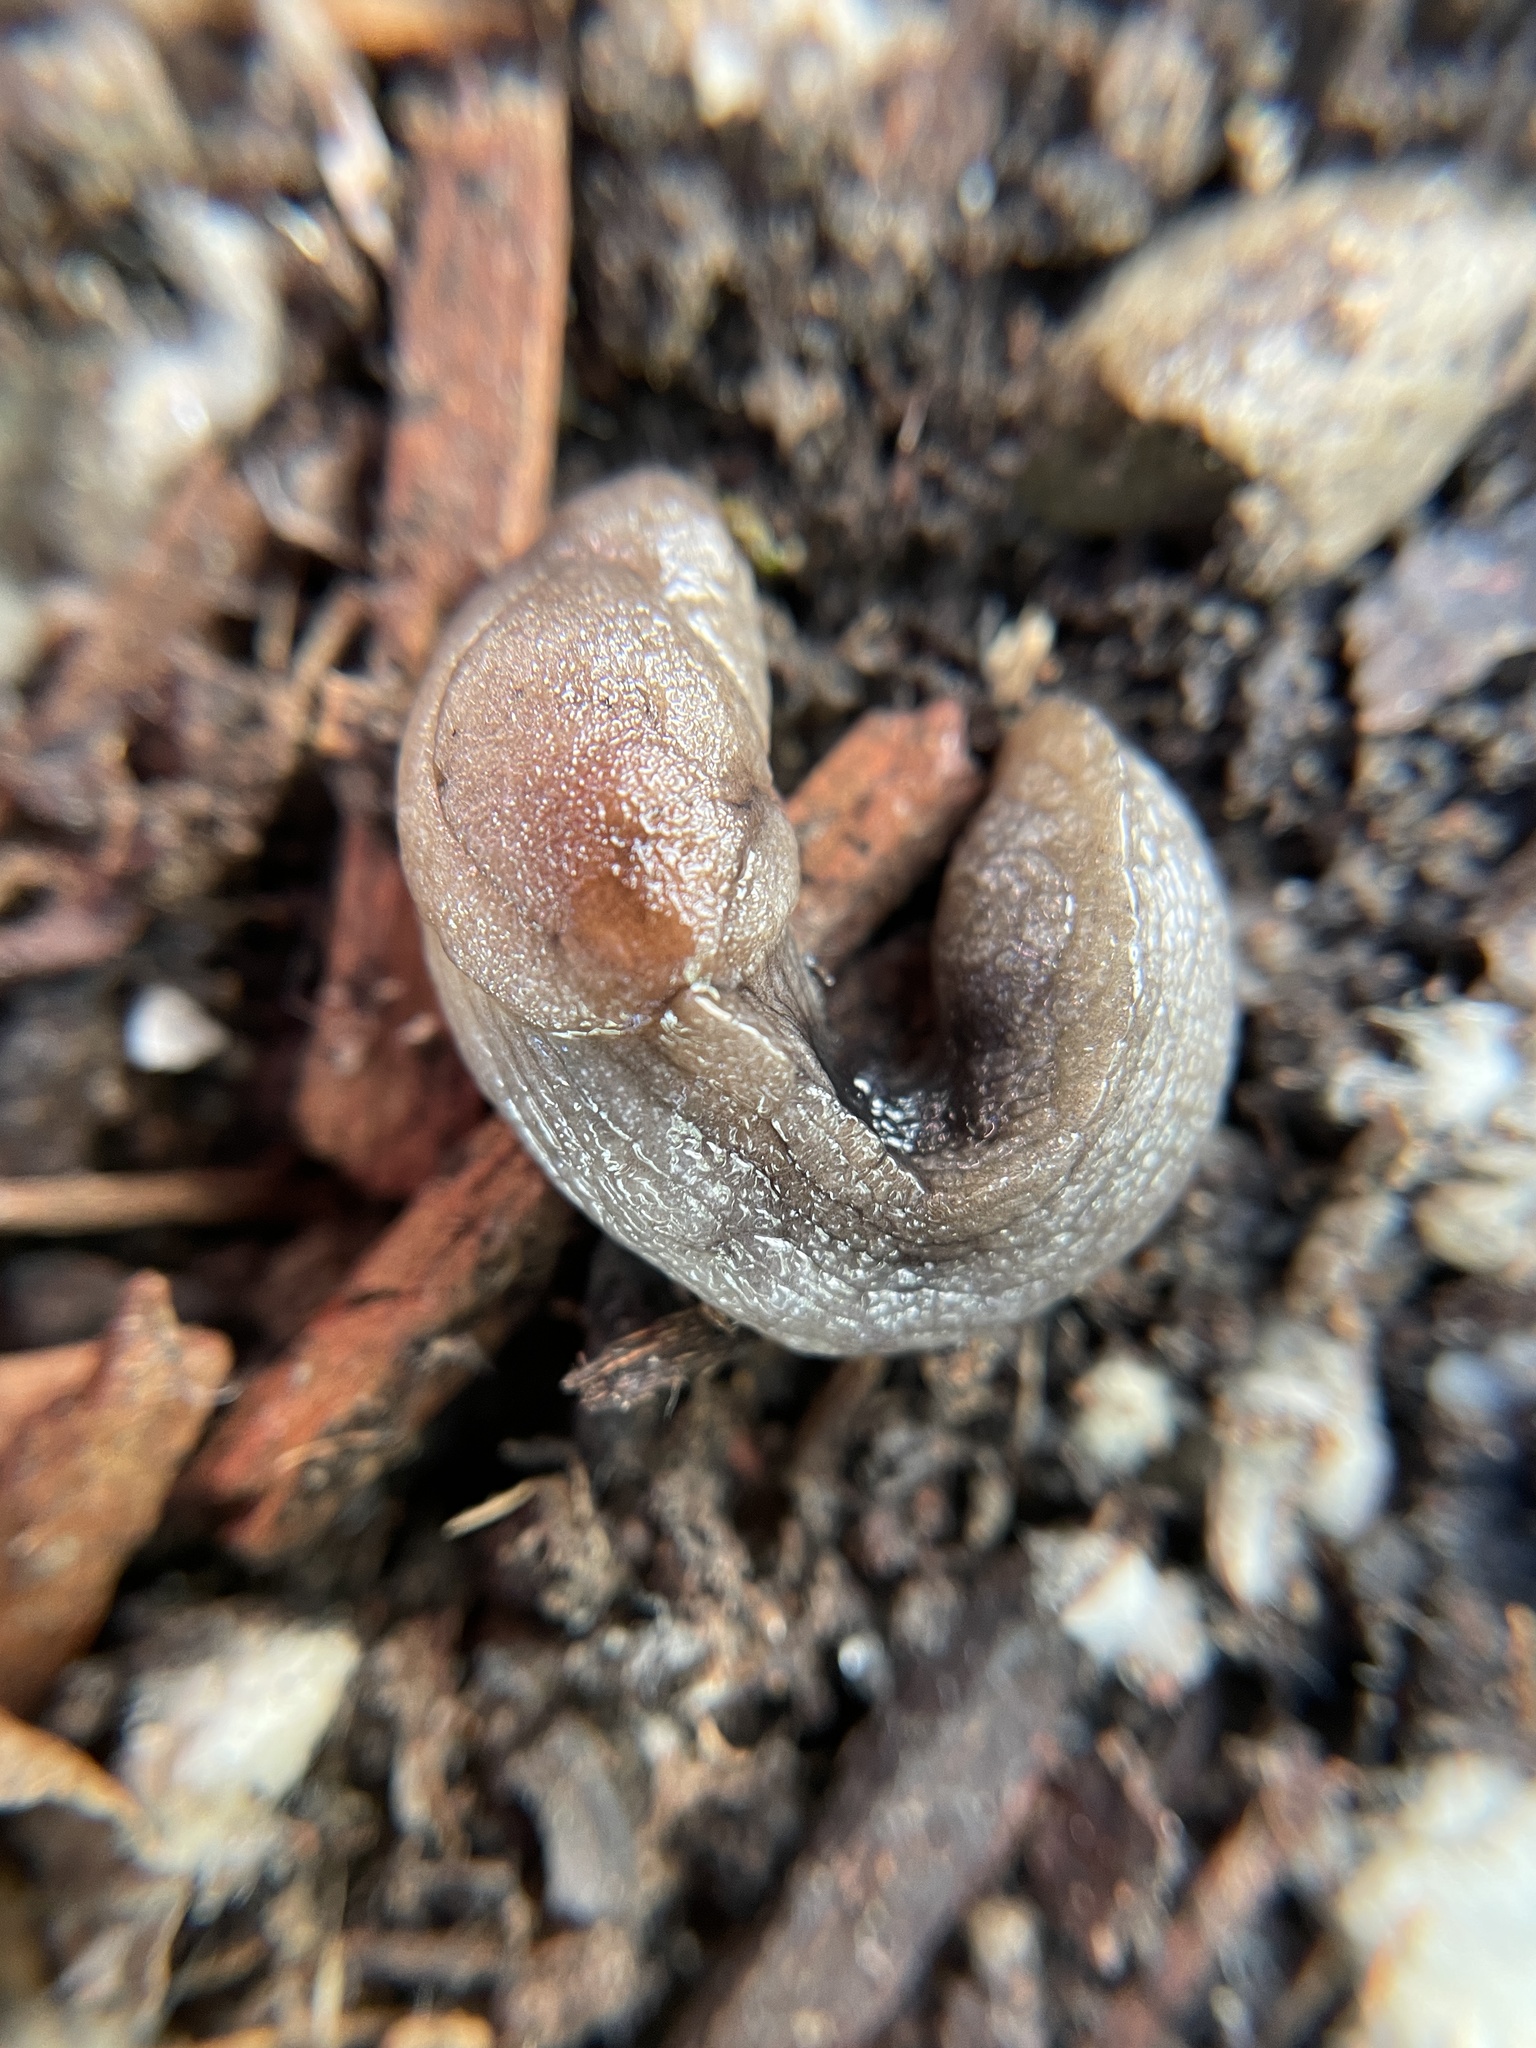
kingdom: Animalia
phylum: Mollusca
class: Gastropoda
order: Stylommatophora
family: Milacidae
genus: Milax
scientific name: Milax gagates
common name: Greenhouse slug
